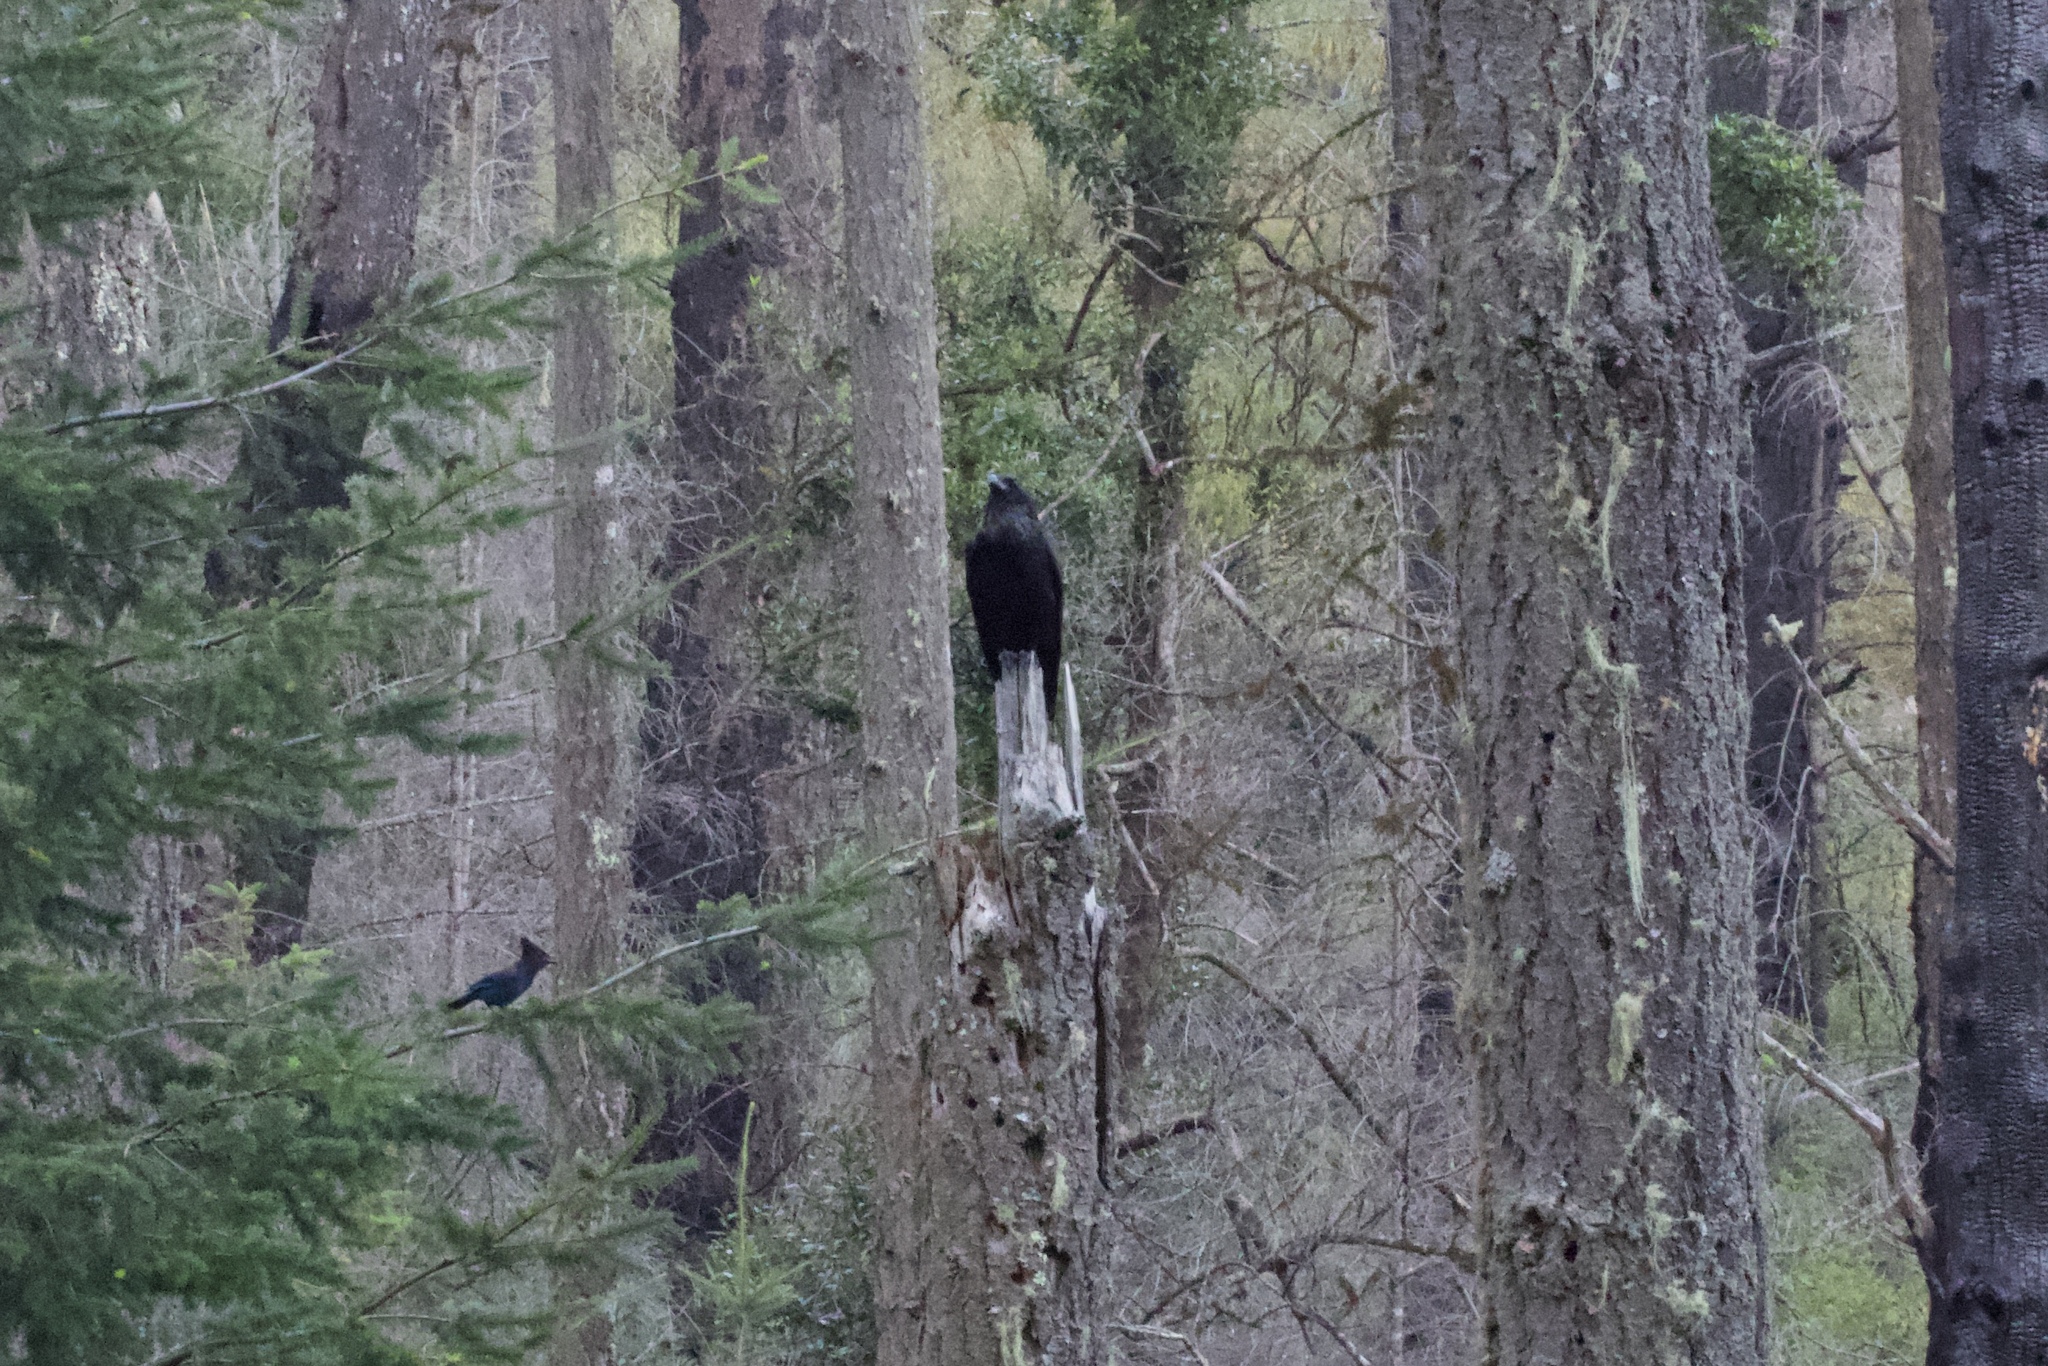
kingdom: Animalia
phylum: Chordata
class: Aves
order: Passeriformes
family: Corvidae
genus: Cyanocitta
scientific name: Cyanocitta stelleri
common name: Steller's jay
